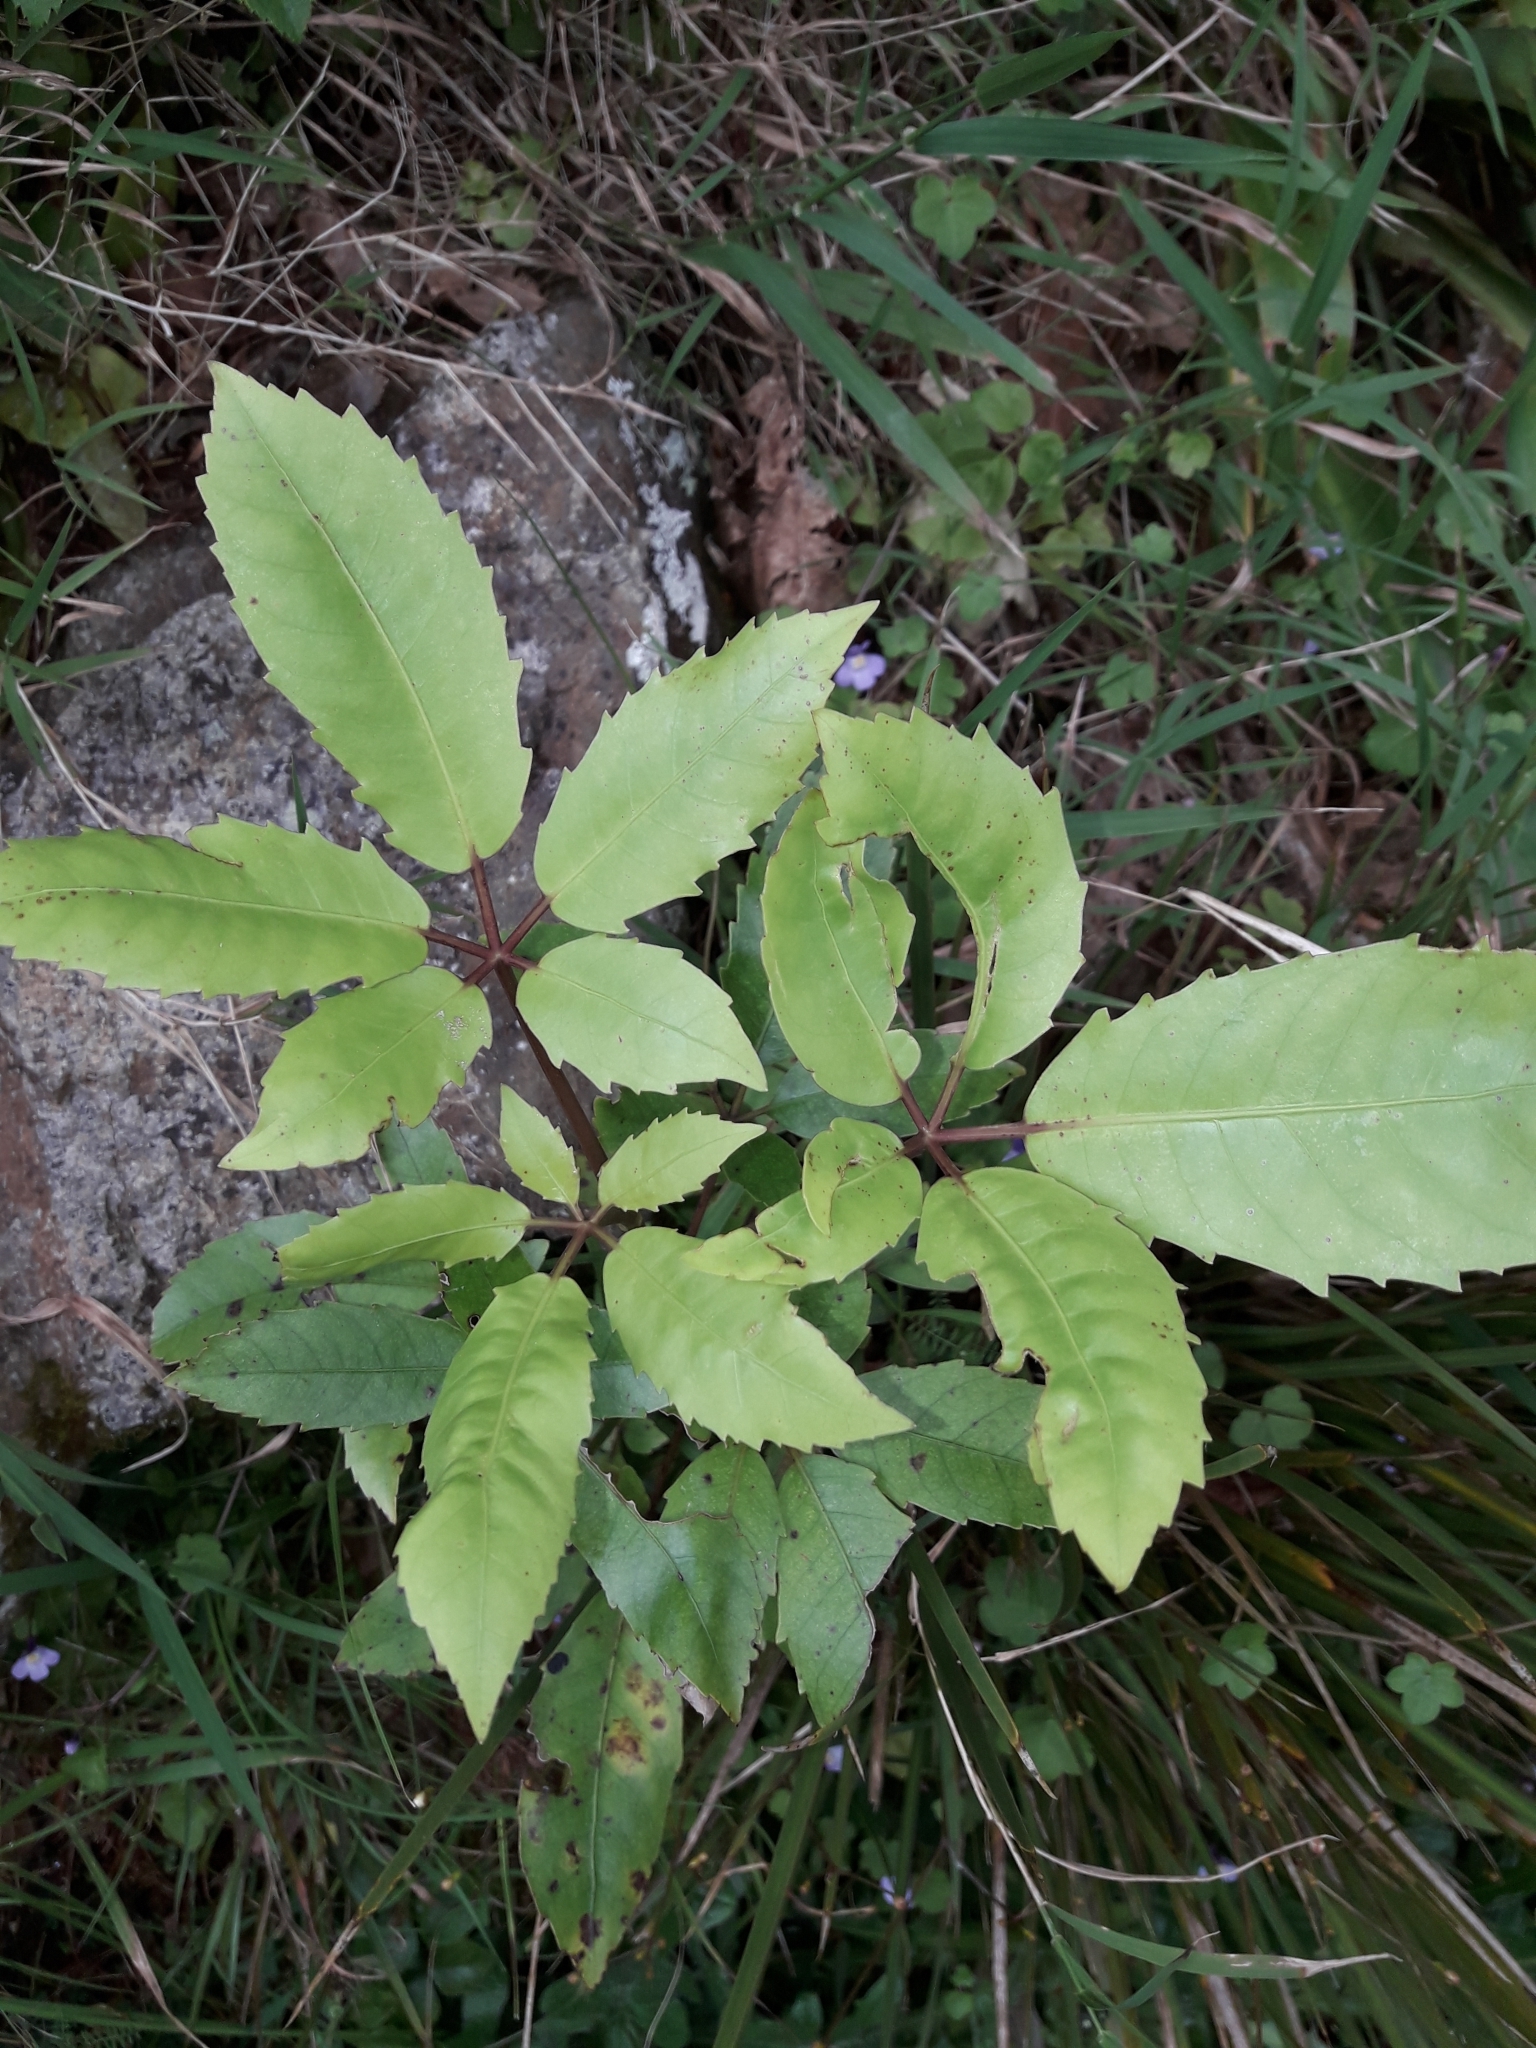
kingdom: Plantae
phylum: Tracheophyta
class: Magnoliopsida
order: Apiales
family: Araliaceae
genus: Neopanax
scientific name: Neopanax arboreus
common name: Five-fingers
